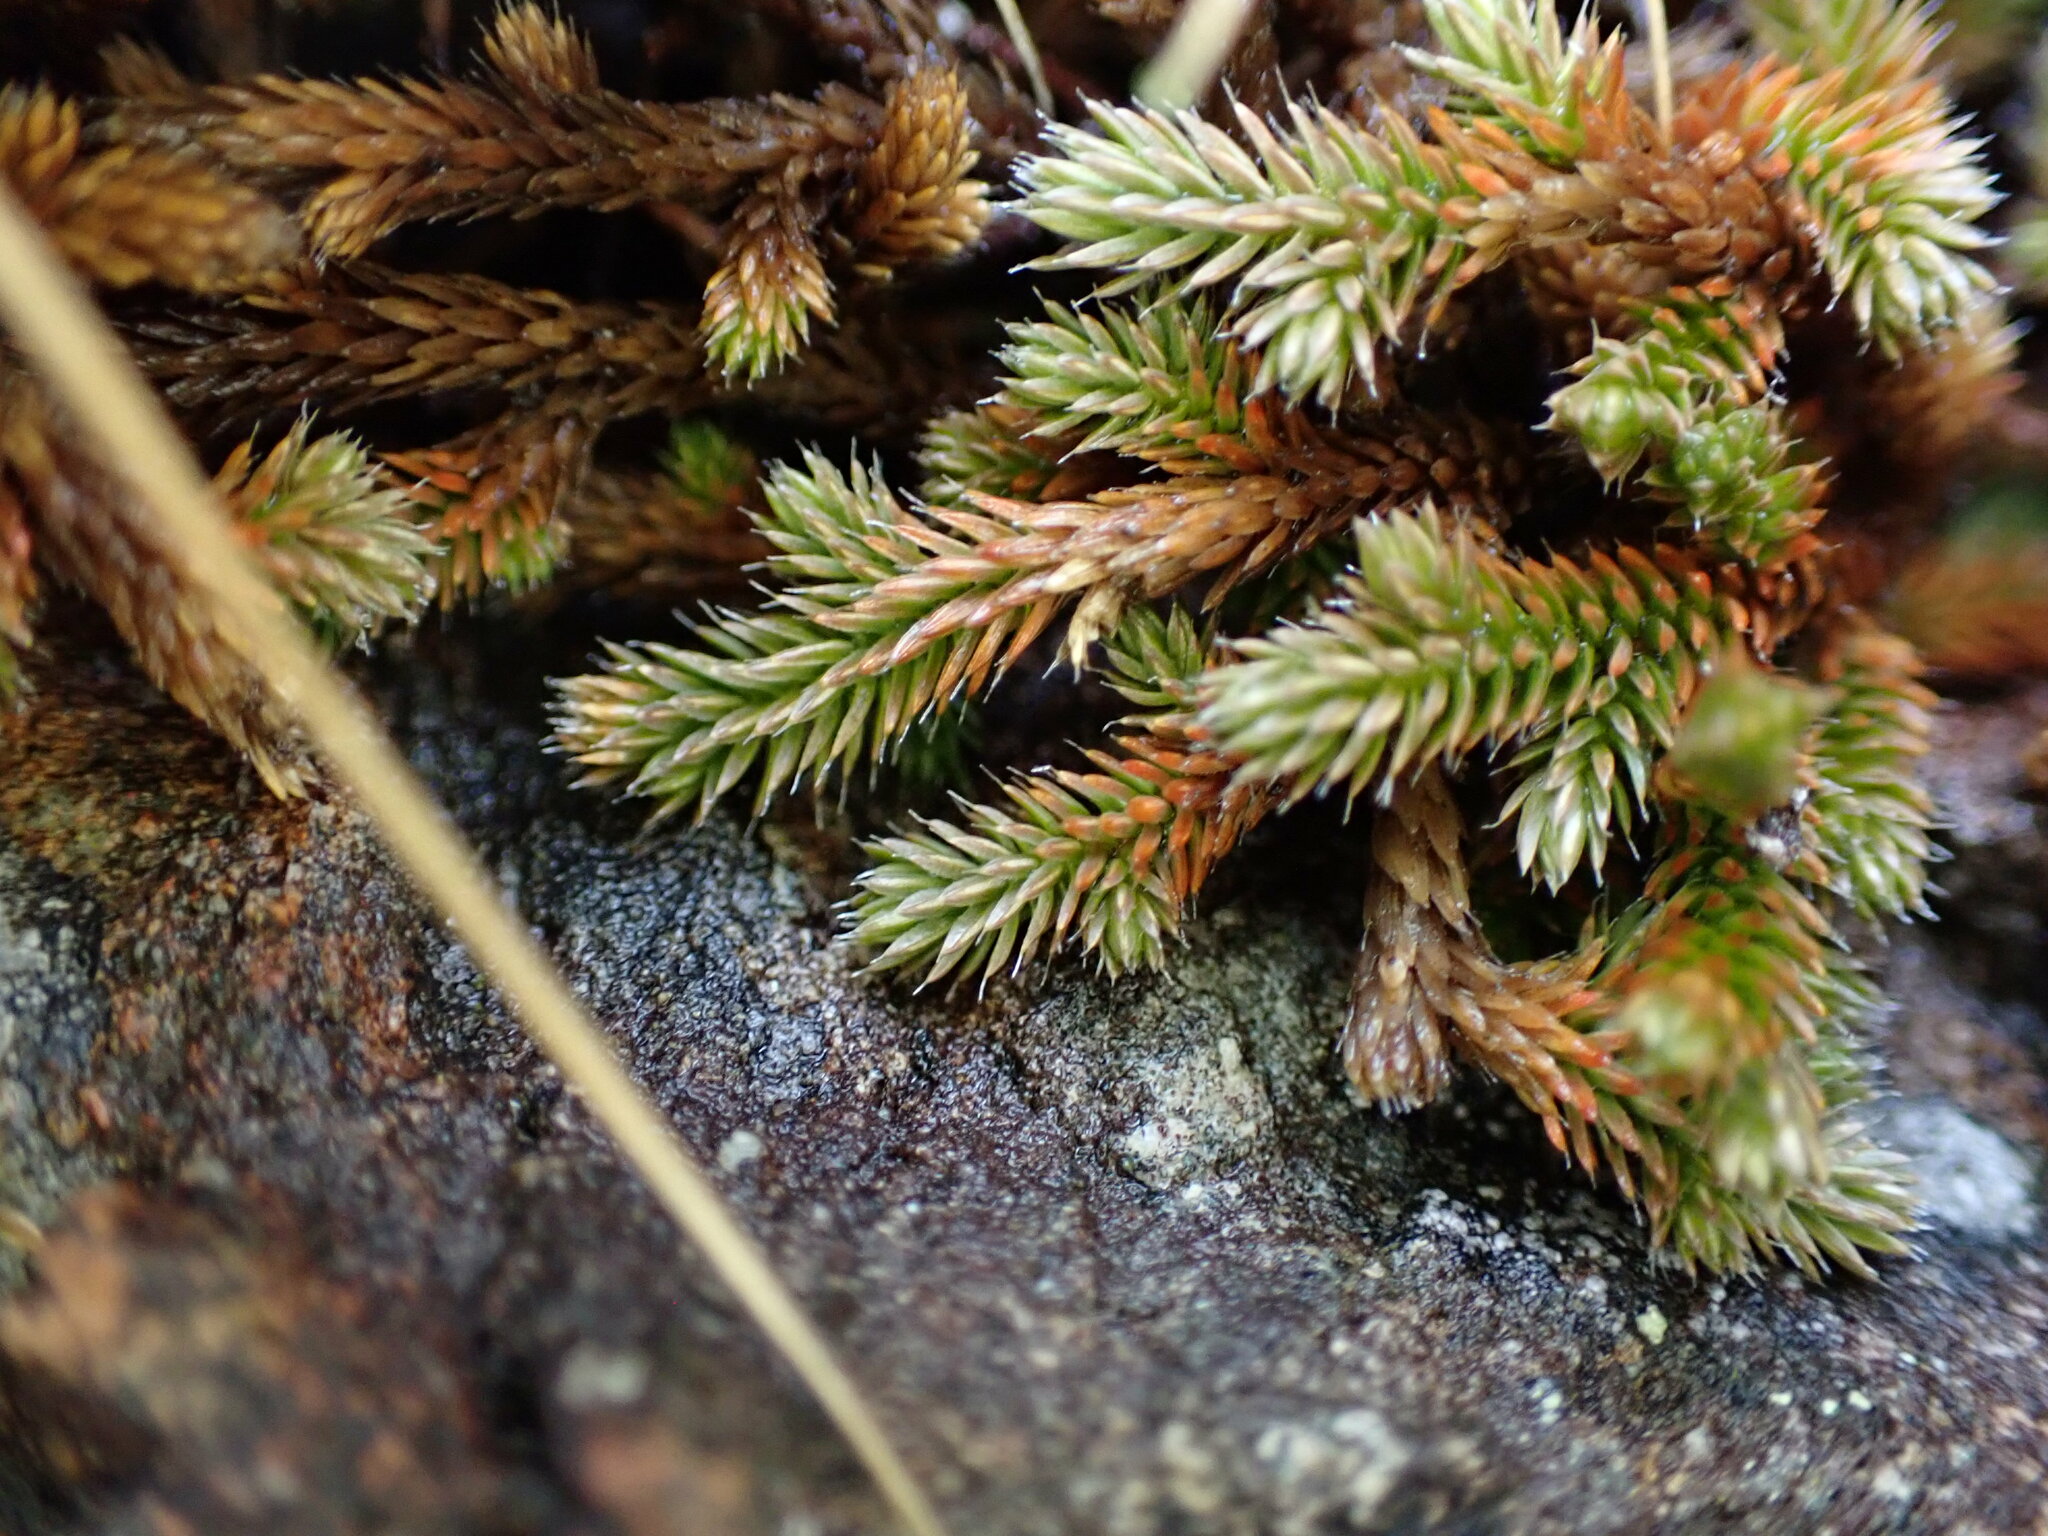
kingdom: Plantae
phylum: Tracheophyta
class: Lycopodiopsida
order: Selaginellales
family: Selaginellaceae
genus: Selaginella
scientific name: Selaginella wallacei
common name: Wallace's selaginella
